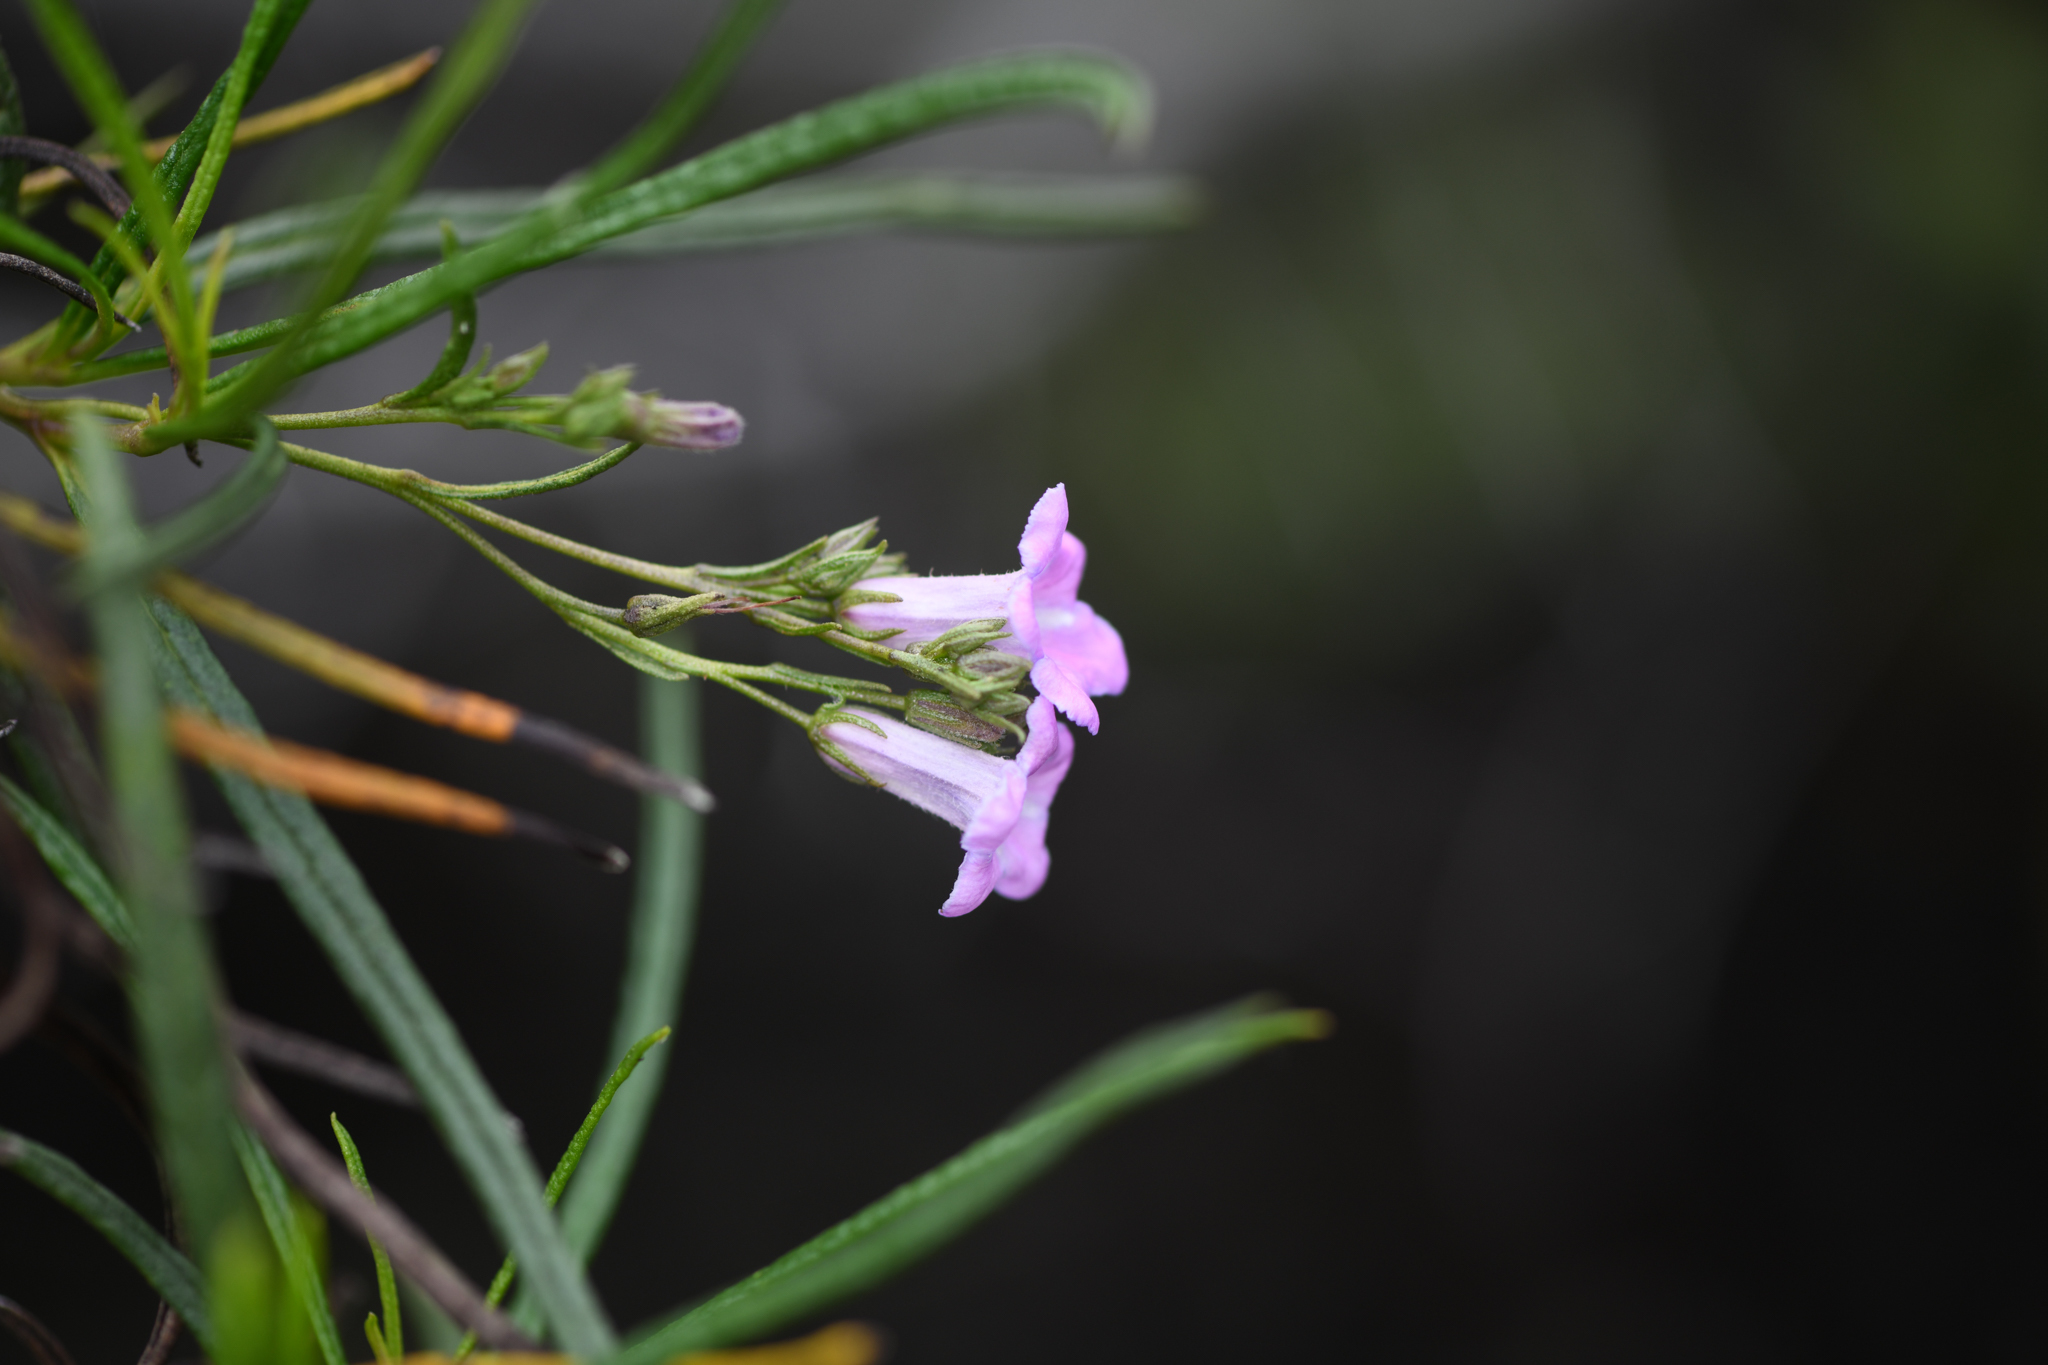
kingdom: Plantae
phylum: Tracheophyta
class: Magnoliopsida
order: Boraginales
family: Namaceae
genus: Eriodictyon
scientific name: Eriodictyon altissimum
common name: Indian knob mountain balm
